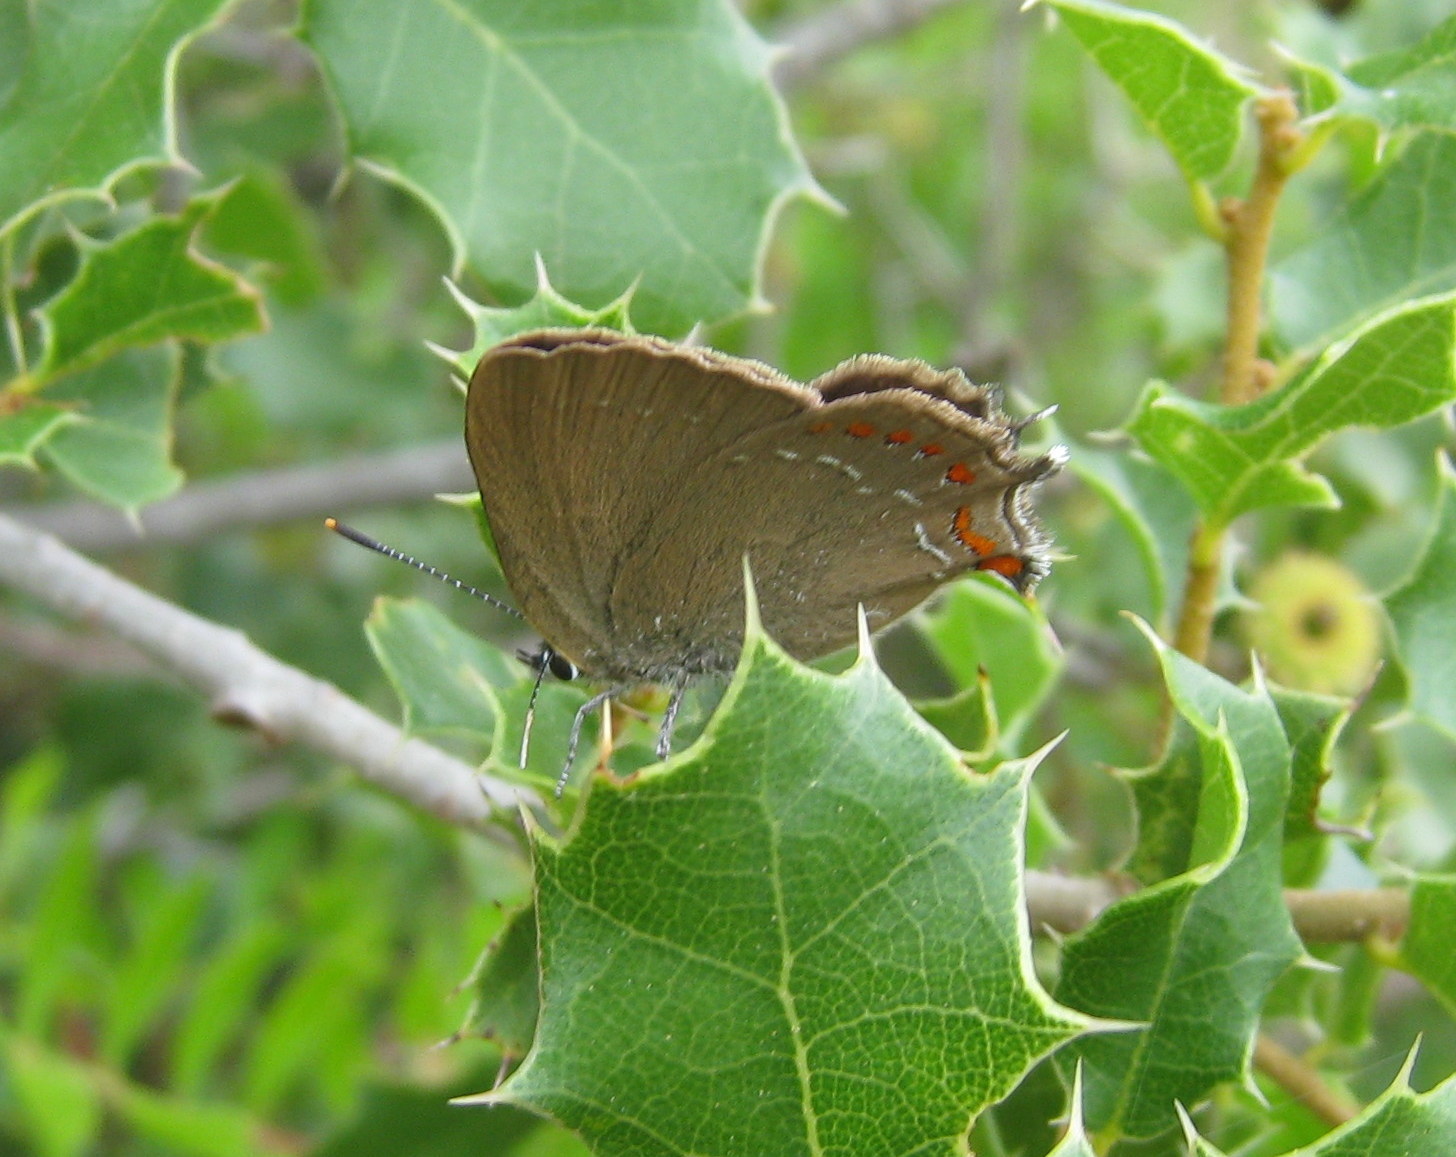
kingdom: Animalia
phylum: Arthropoda
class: Insecta
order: Lepidoptera
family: Lycaenidae
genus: Fixsenia
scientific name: Fixsenia esculi
